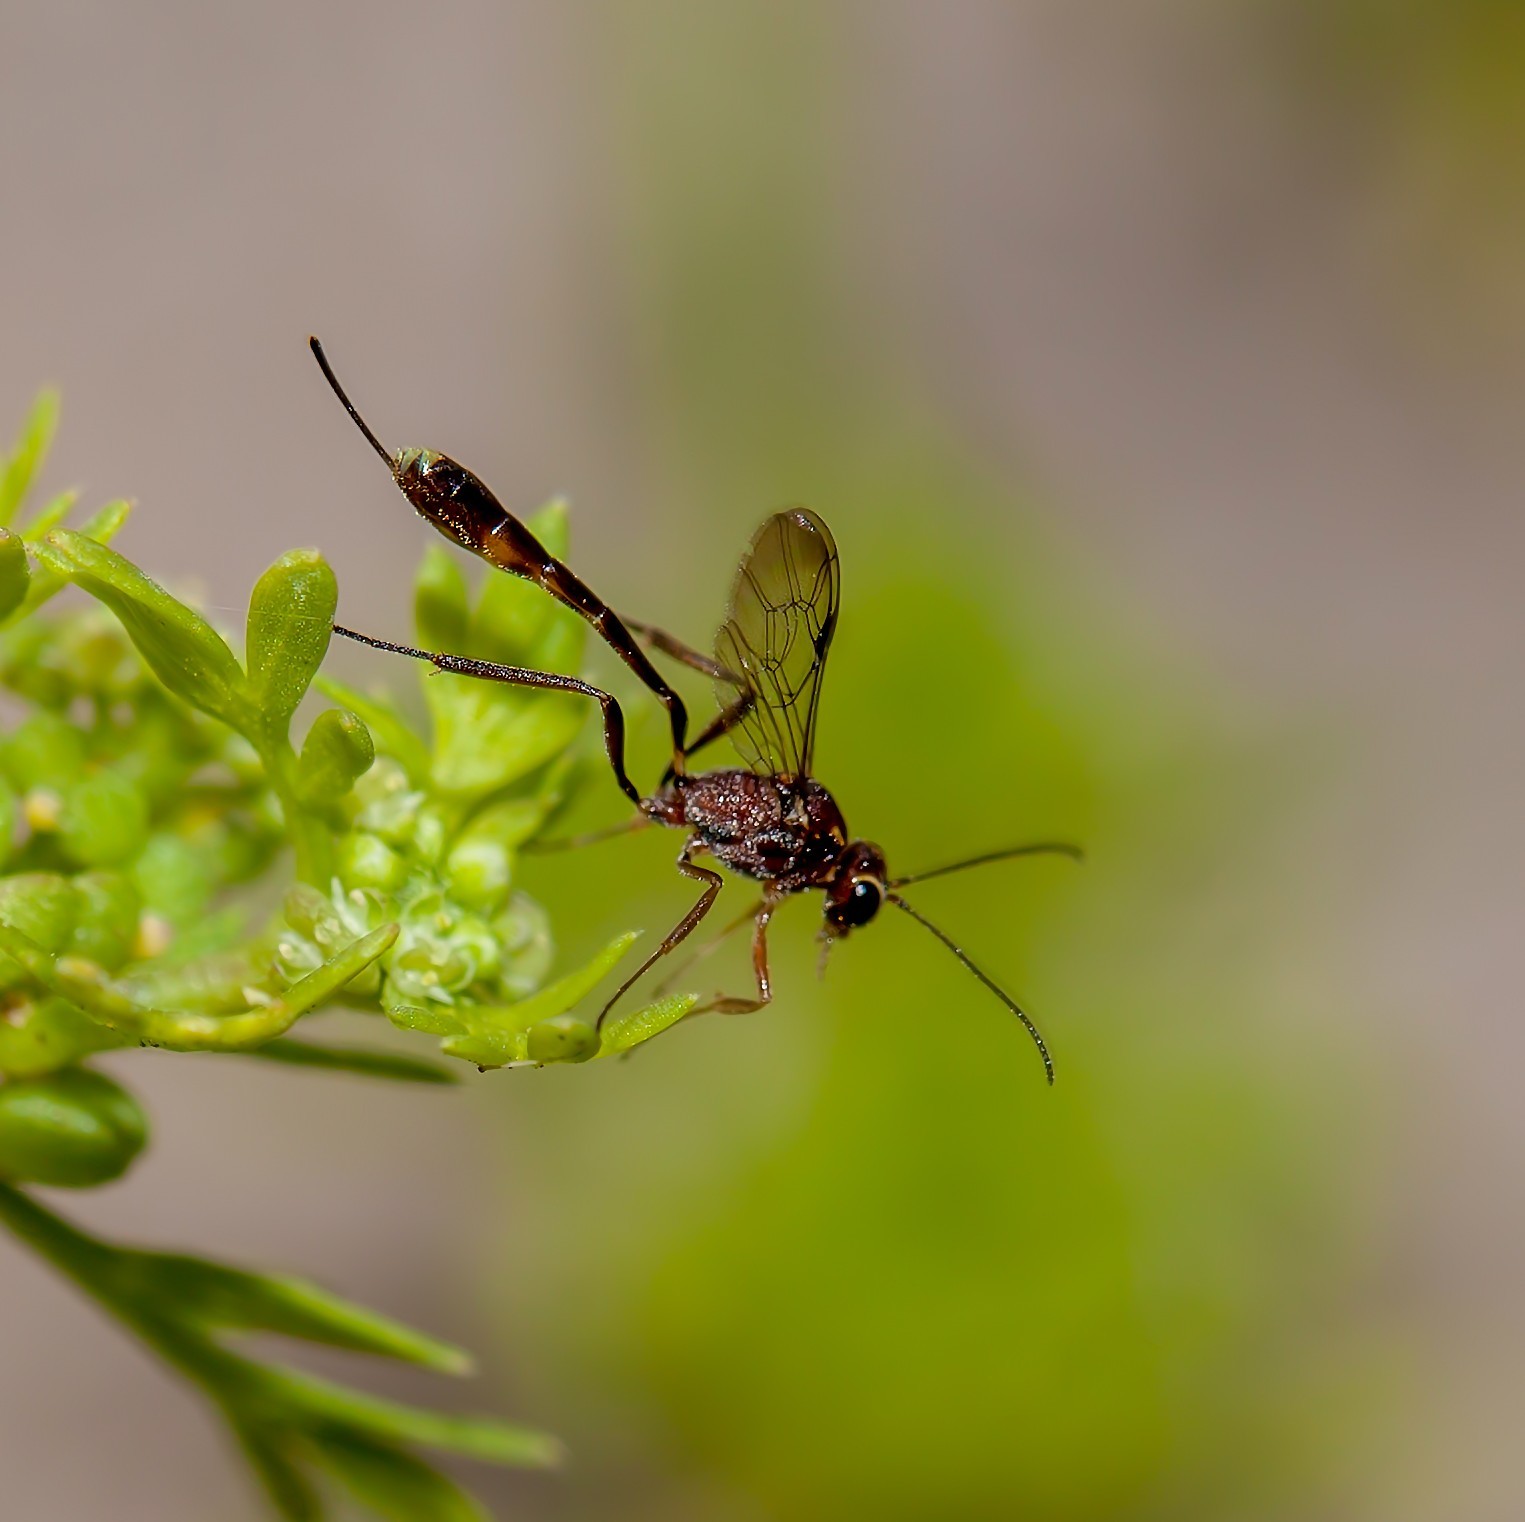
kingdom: Animalia
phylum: Arthropoda
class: Insecta
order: Hymenoptera
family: Ichneumonidae
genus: Anomalon
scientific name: Anomalon
